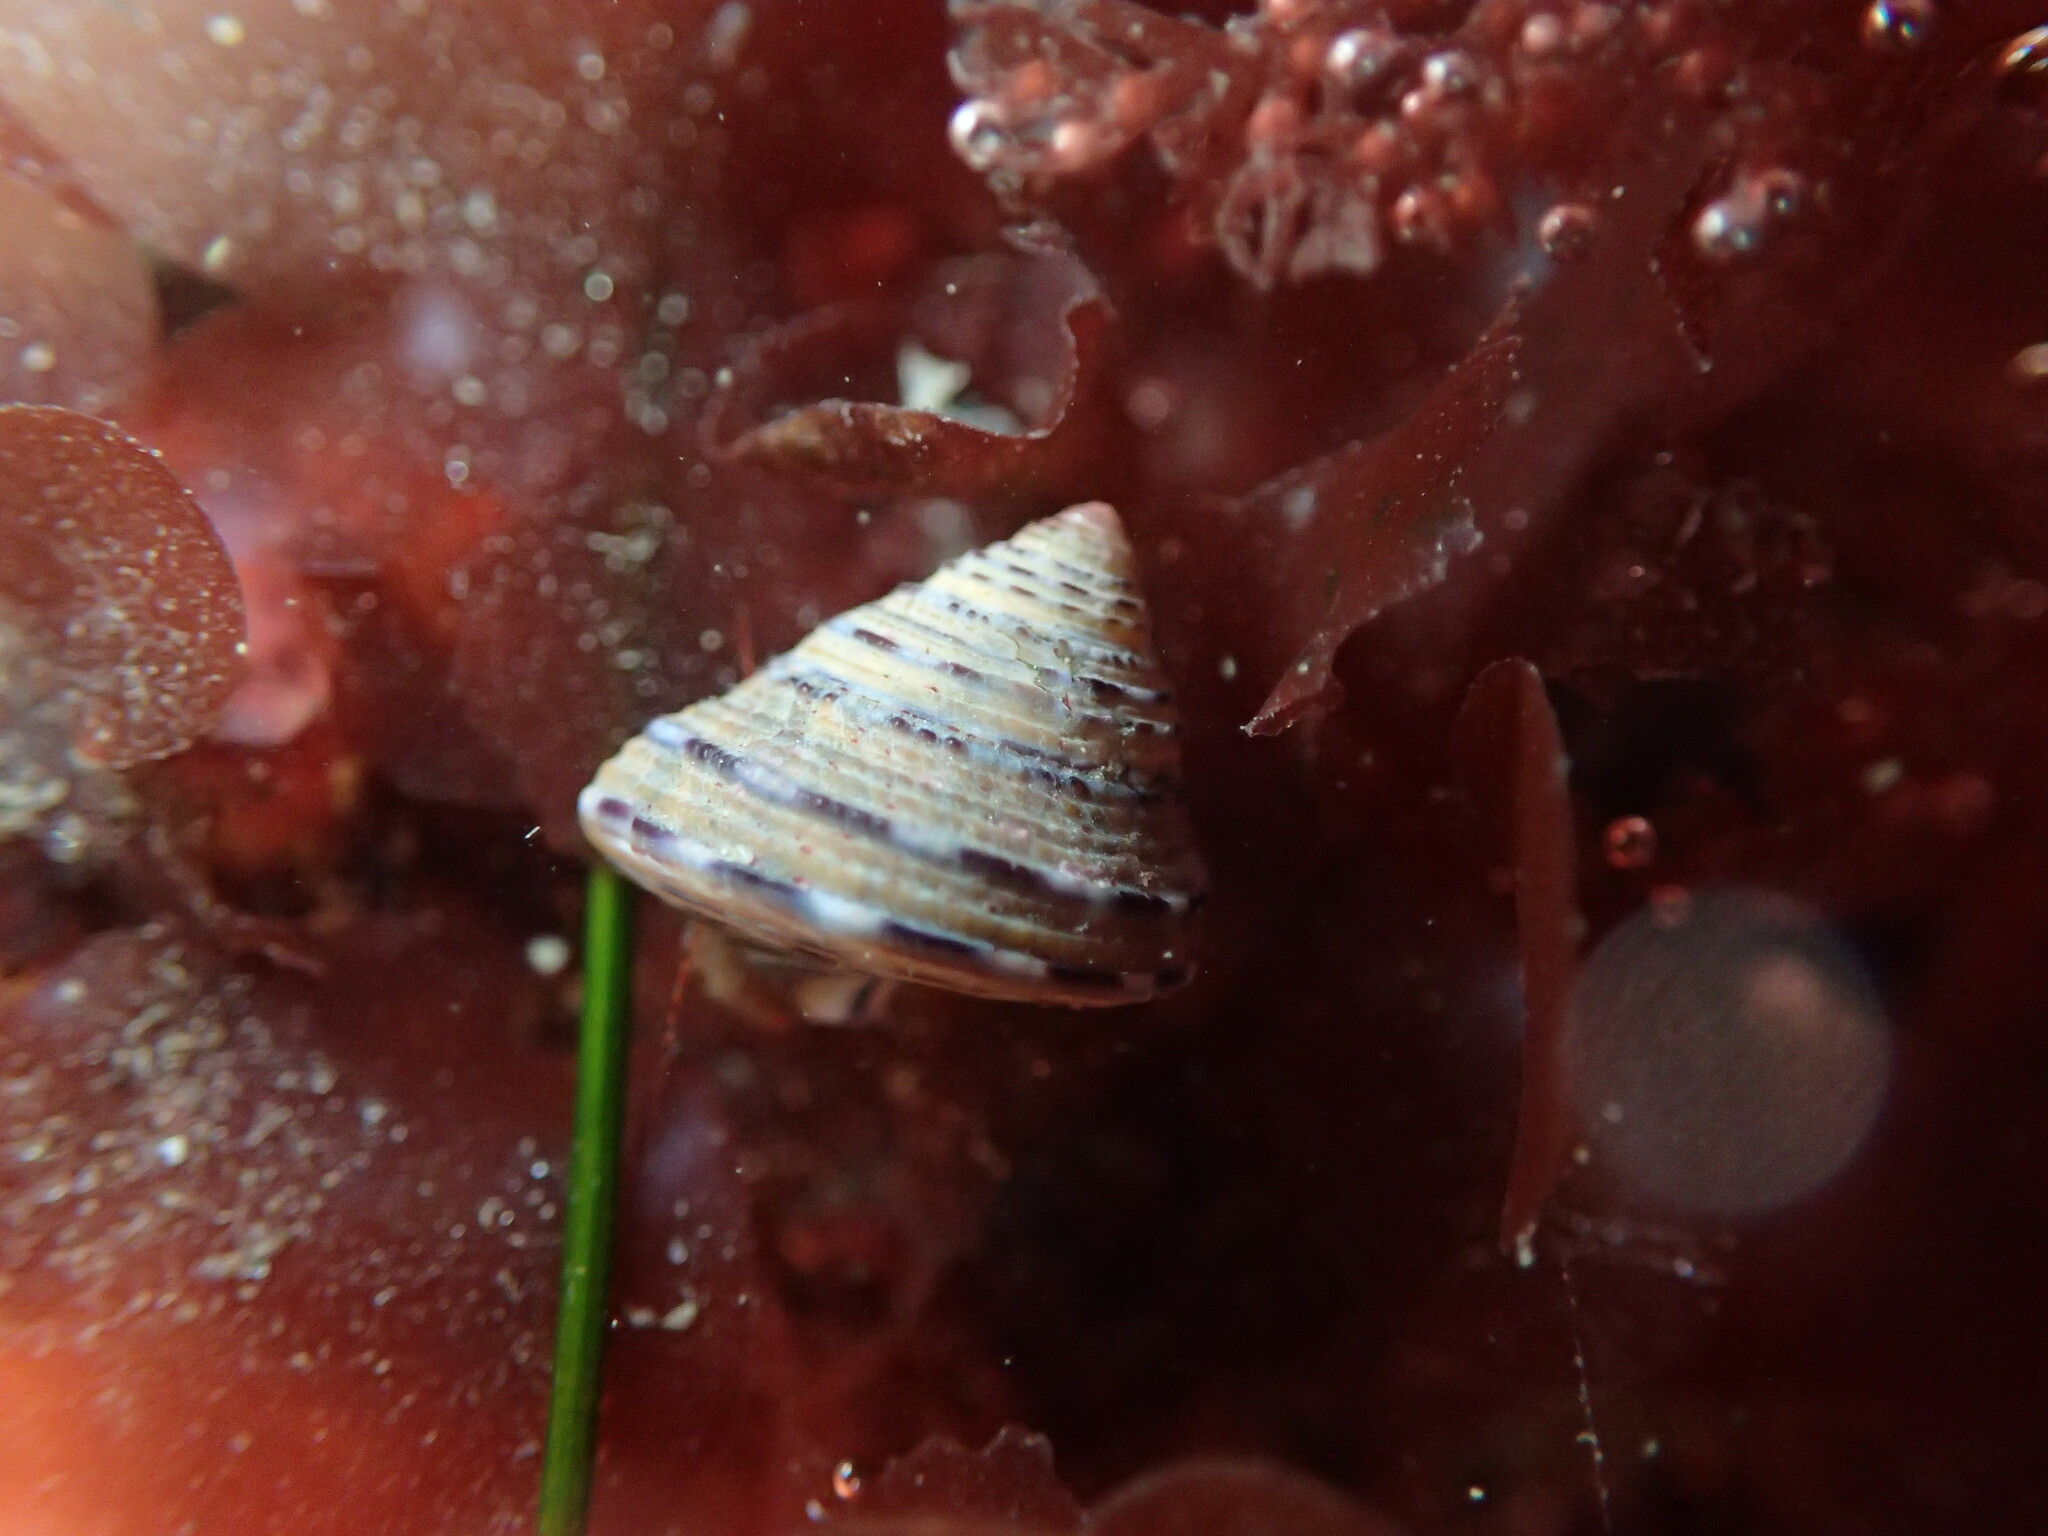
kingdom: Animalia
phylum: Mollusca
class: Gastropoda
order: Trochida
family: Calliostomatidae
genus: Calliostoma
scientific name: Calliostoma tricolor
